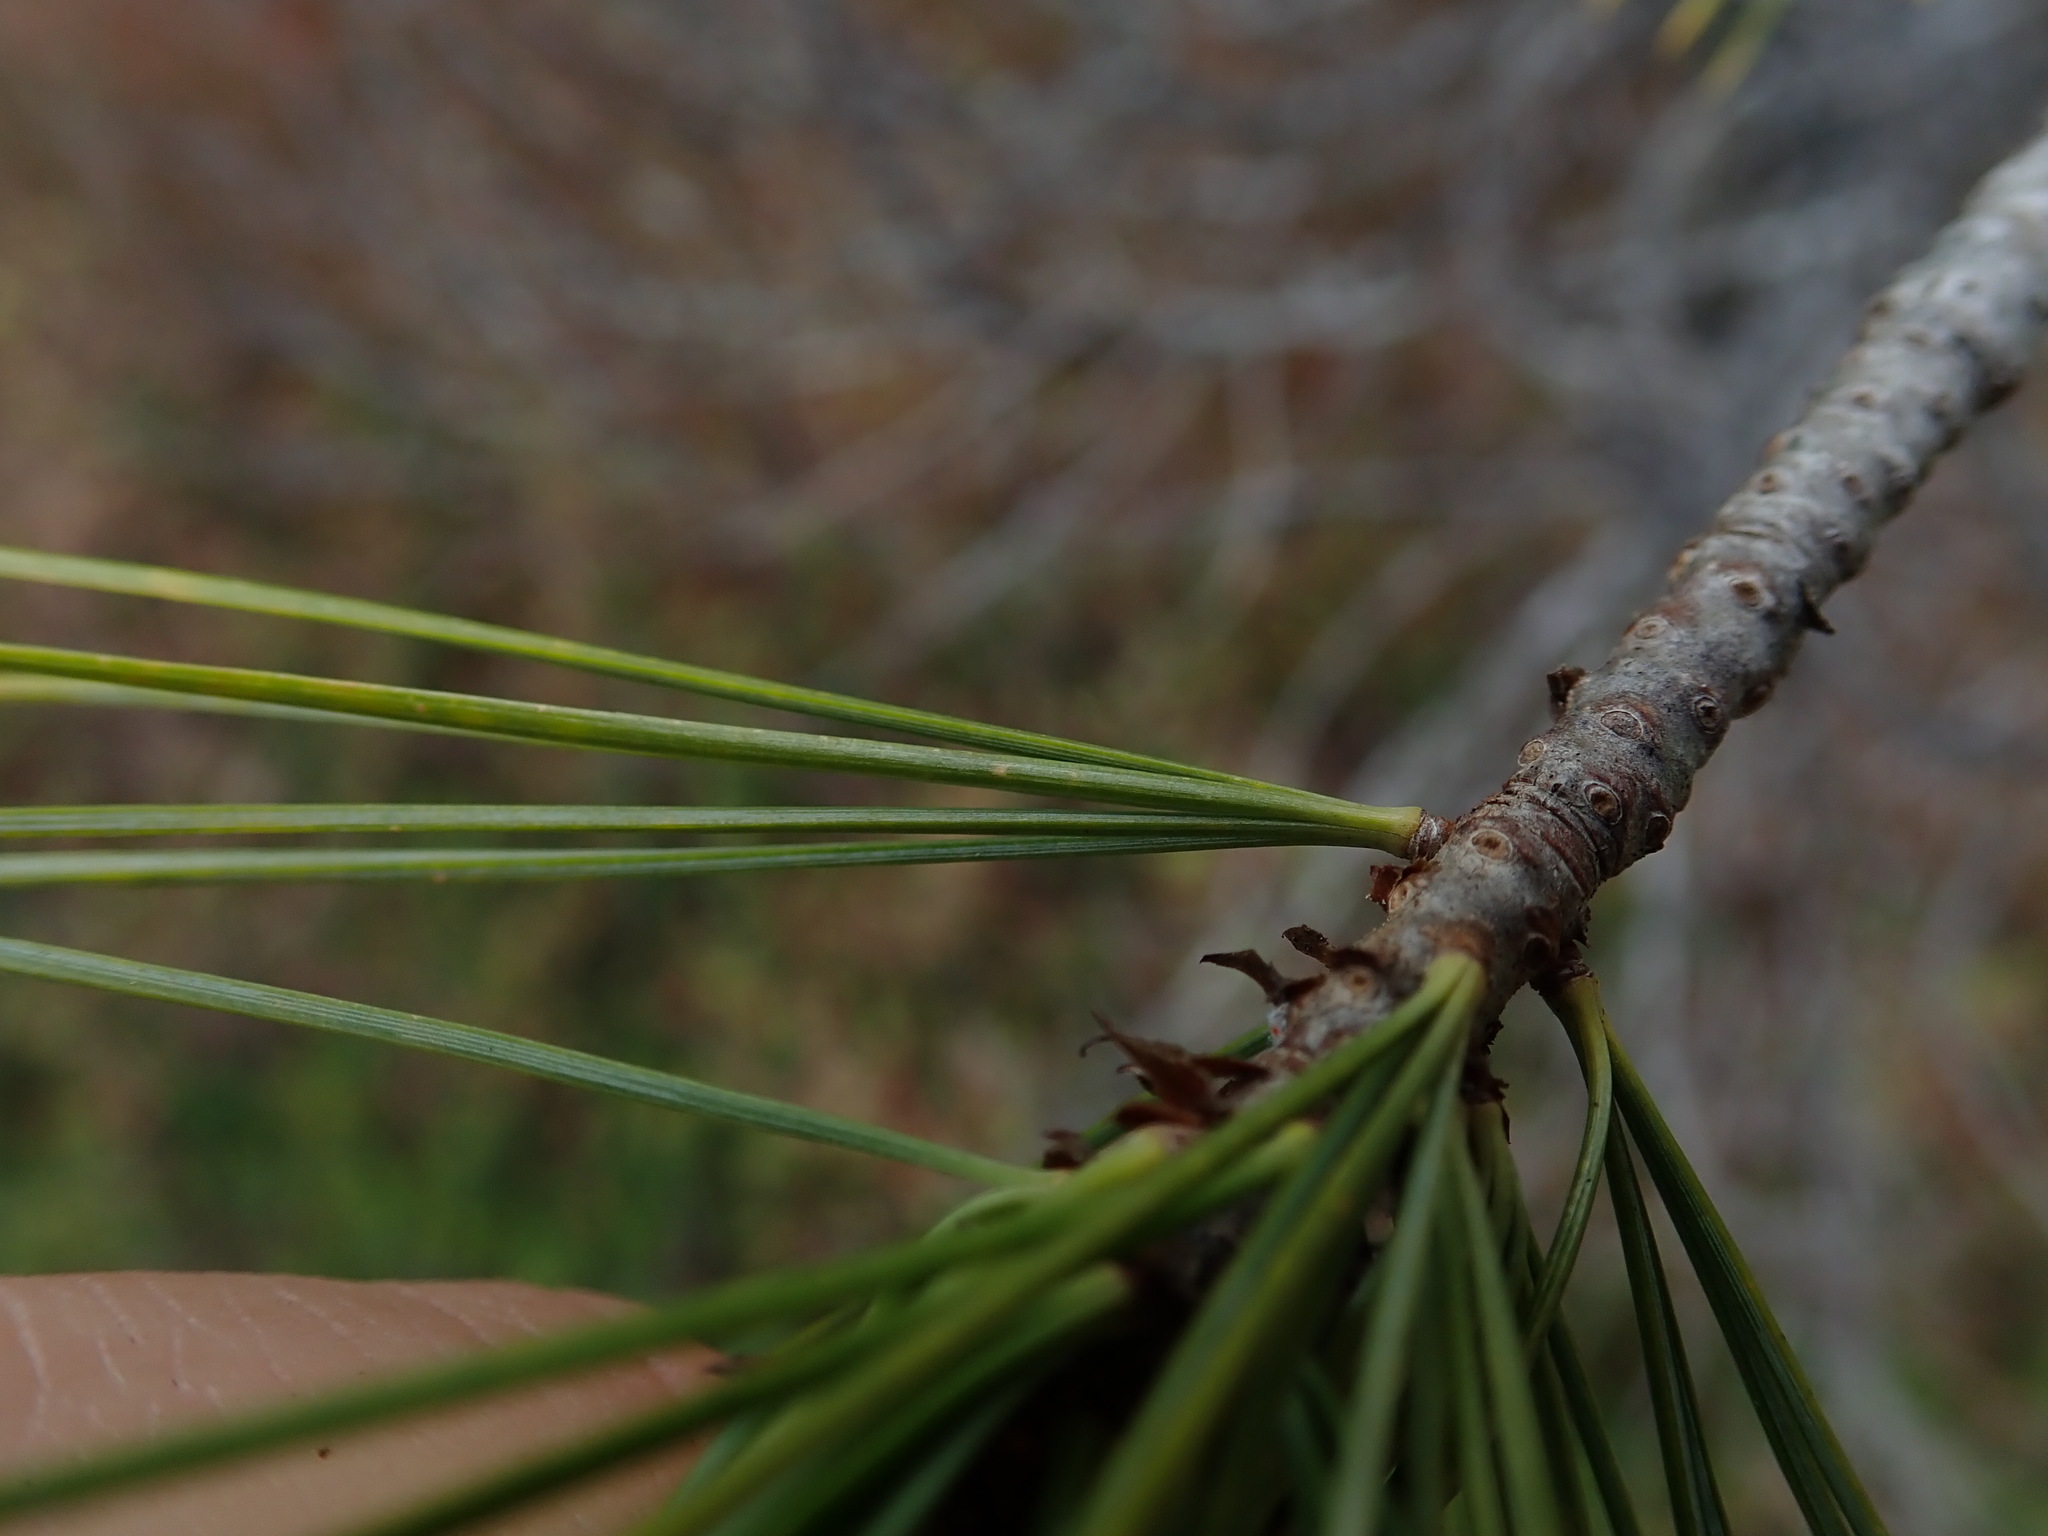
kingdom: Plantae
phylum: Tracheophyta
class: Pinopsida
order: Pinales
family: Pinaceae
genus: Pinus
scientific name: Pinus monticola
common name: Western white pine
